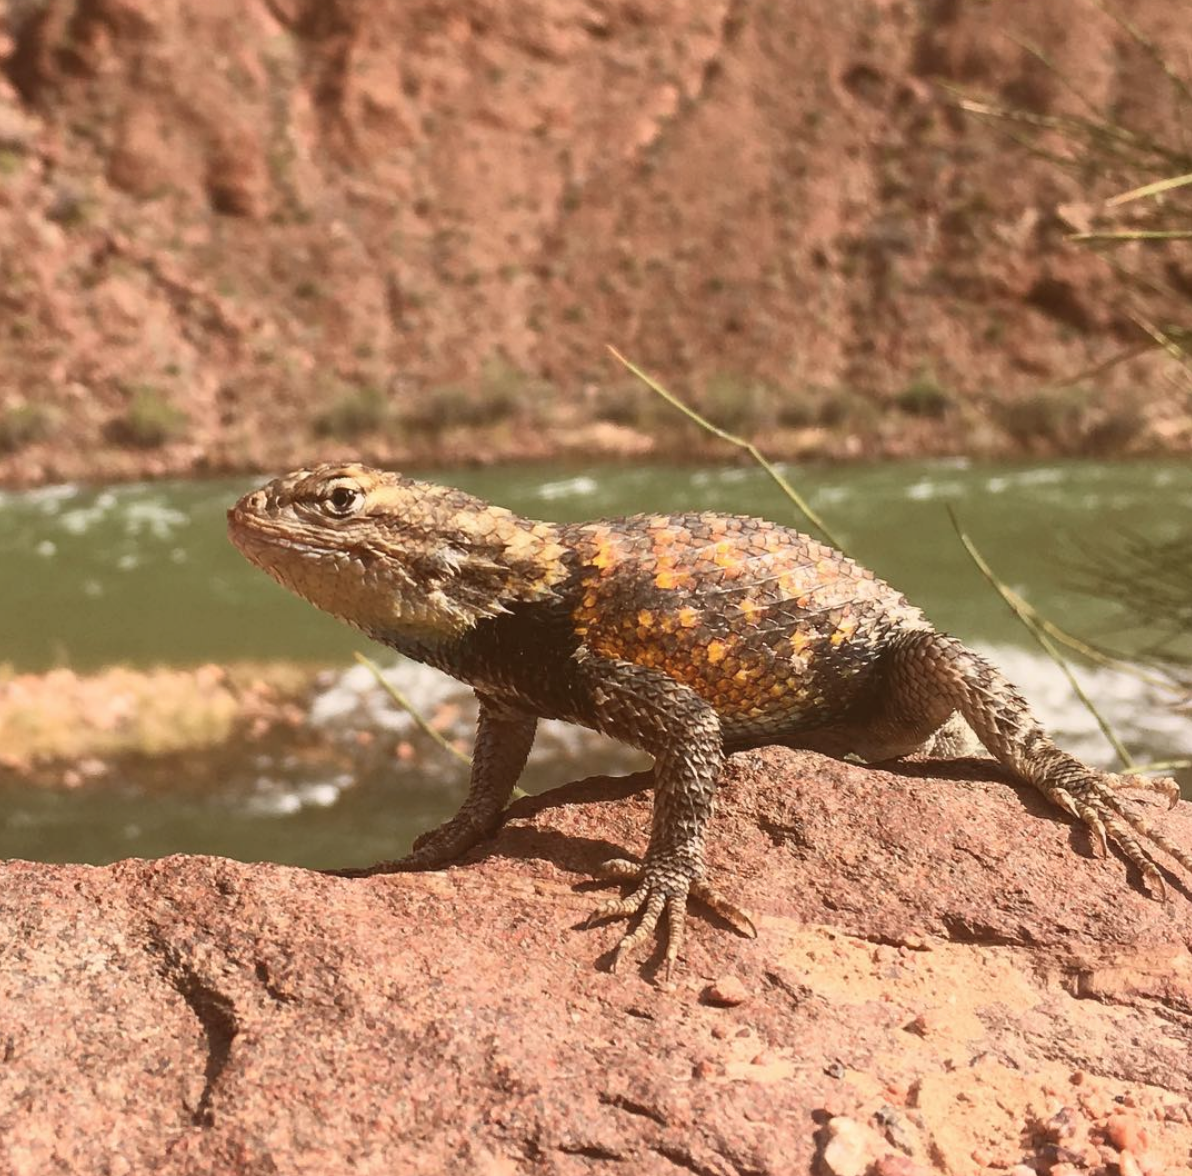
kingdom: Animalia
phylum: Chordata
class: Squamata
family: Phrynosomatidae
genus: Sceloporus
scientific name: Sceloporus magister
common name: Desert spiny lizard
